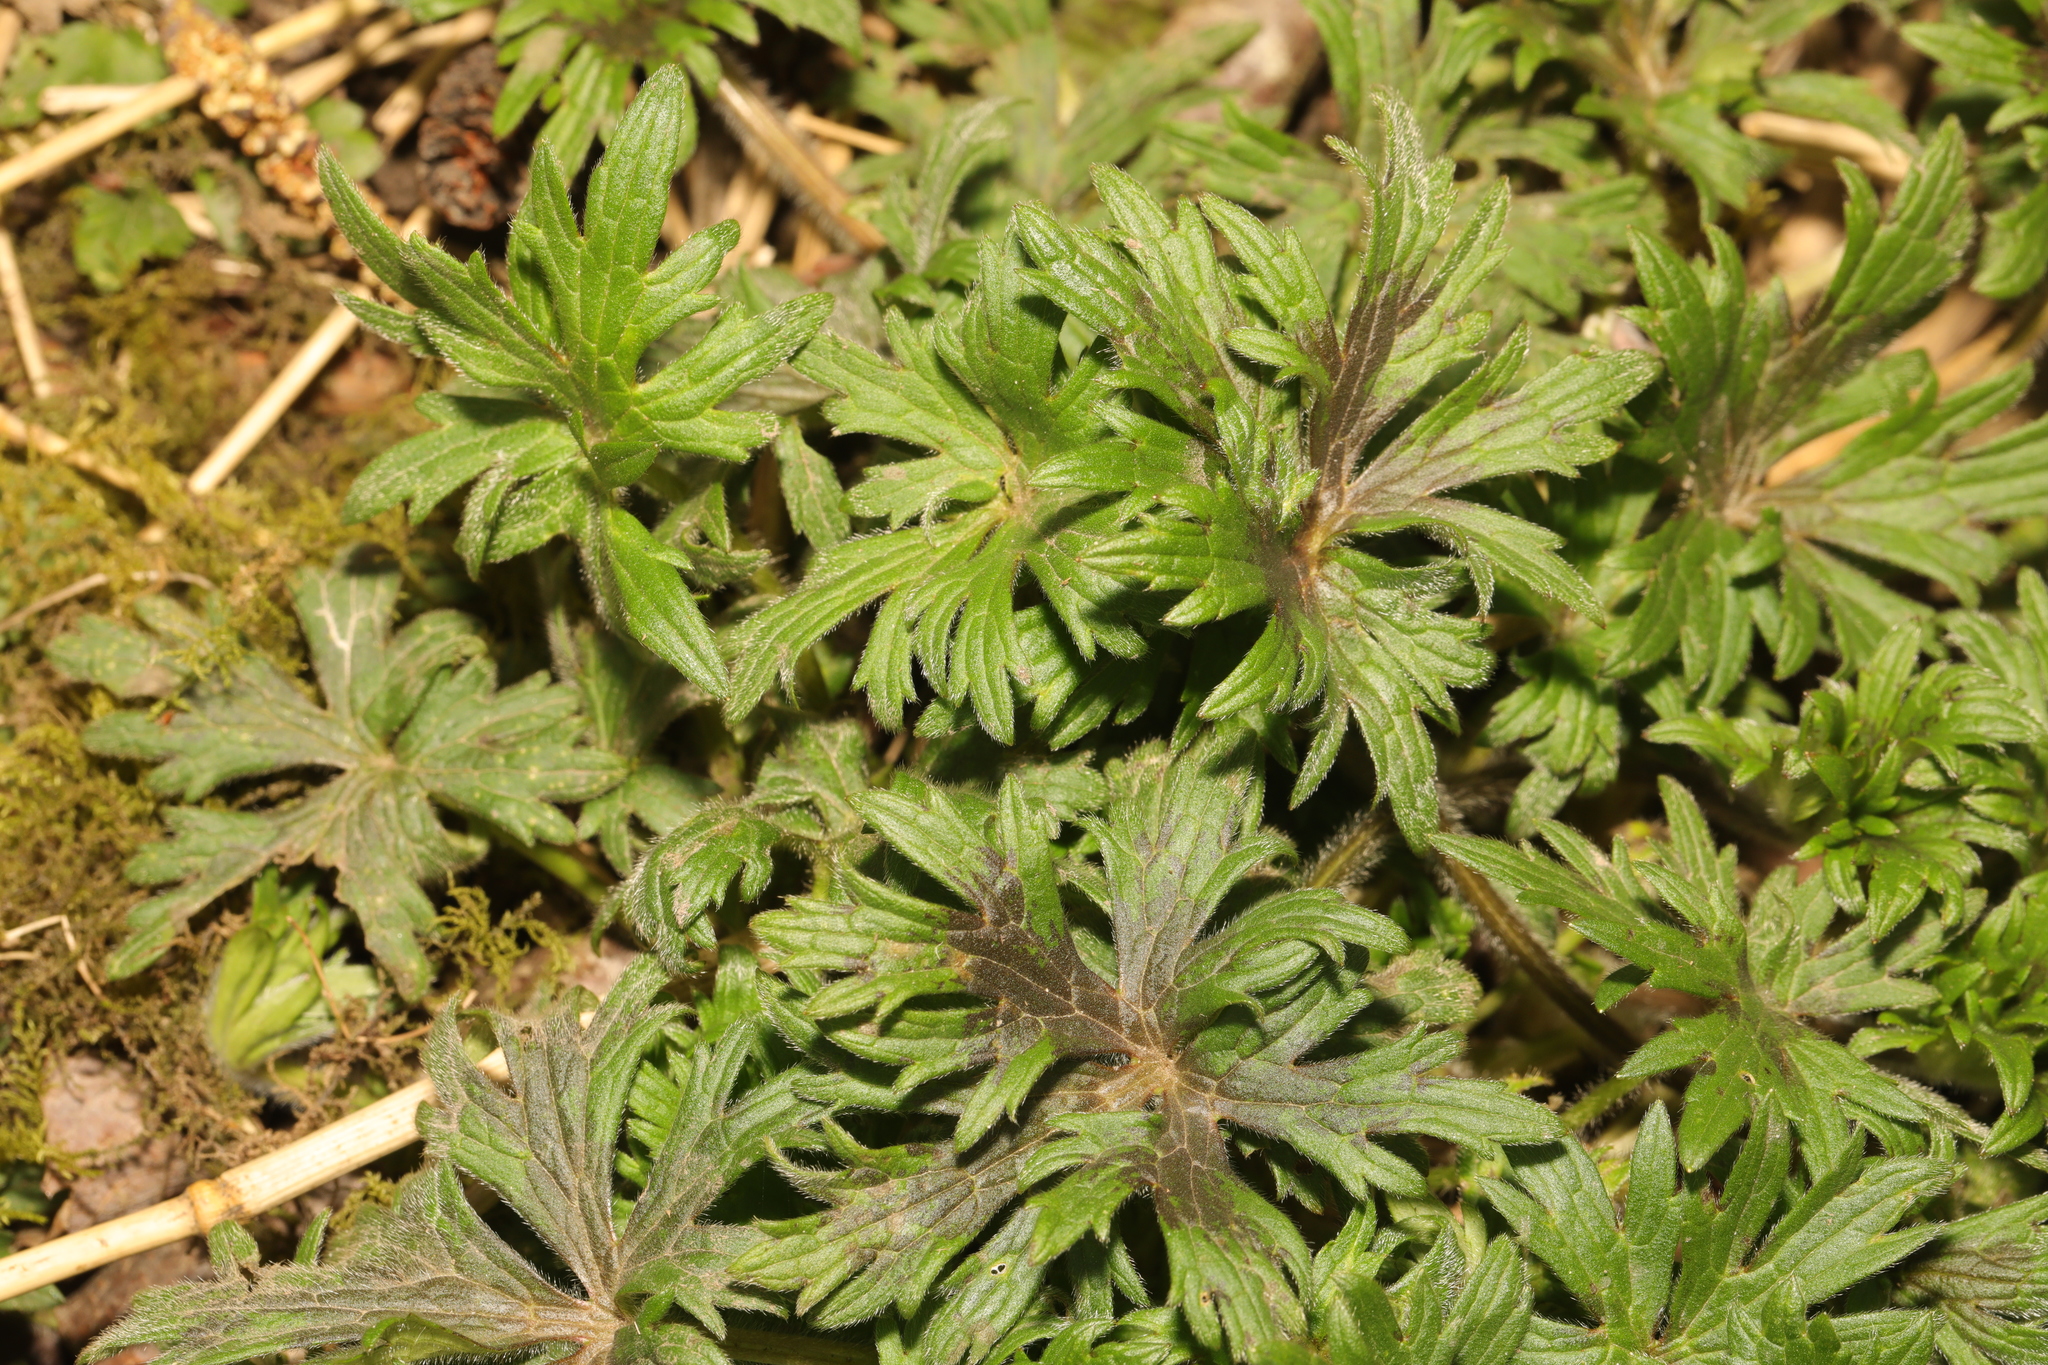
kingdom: Plantae
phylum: Tracheophyta
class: Magnoliopsida
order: Ranunculales
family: Ranunculaceae
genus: Ranunculus
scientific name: Ranunculus acris
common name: Meadow buttercup
